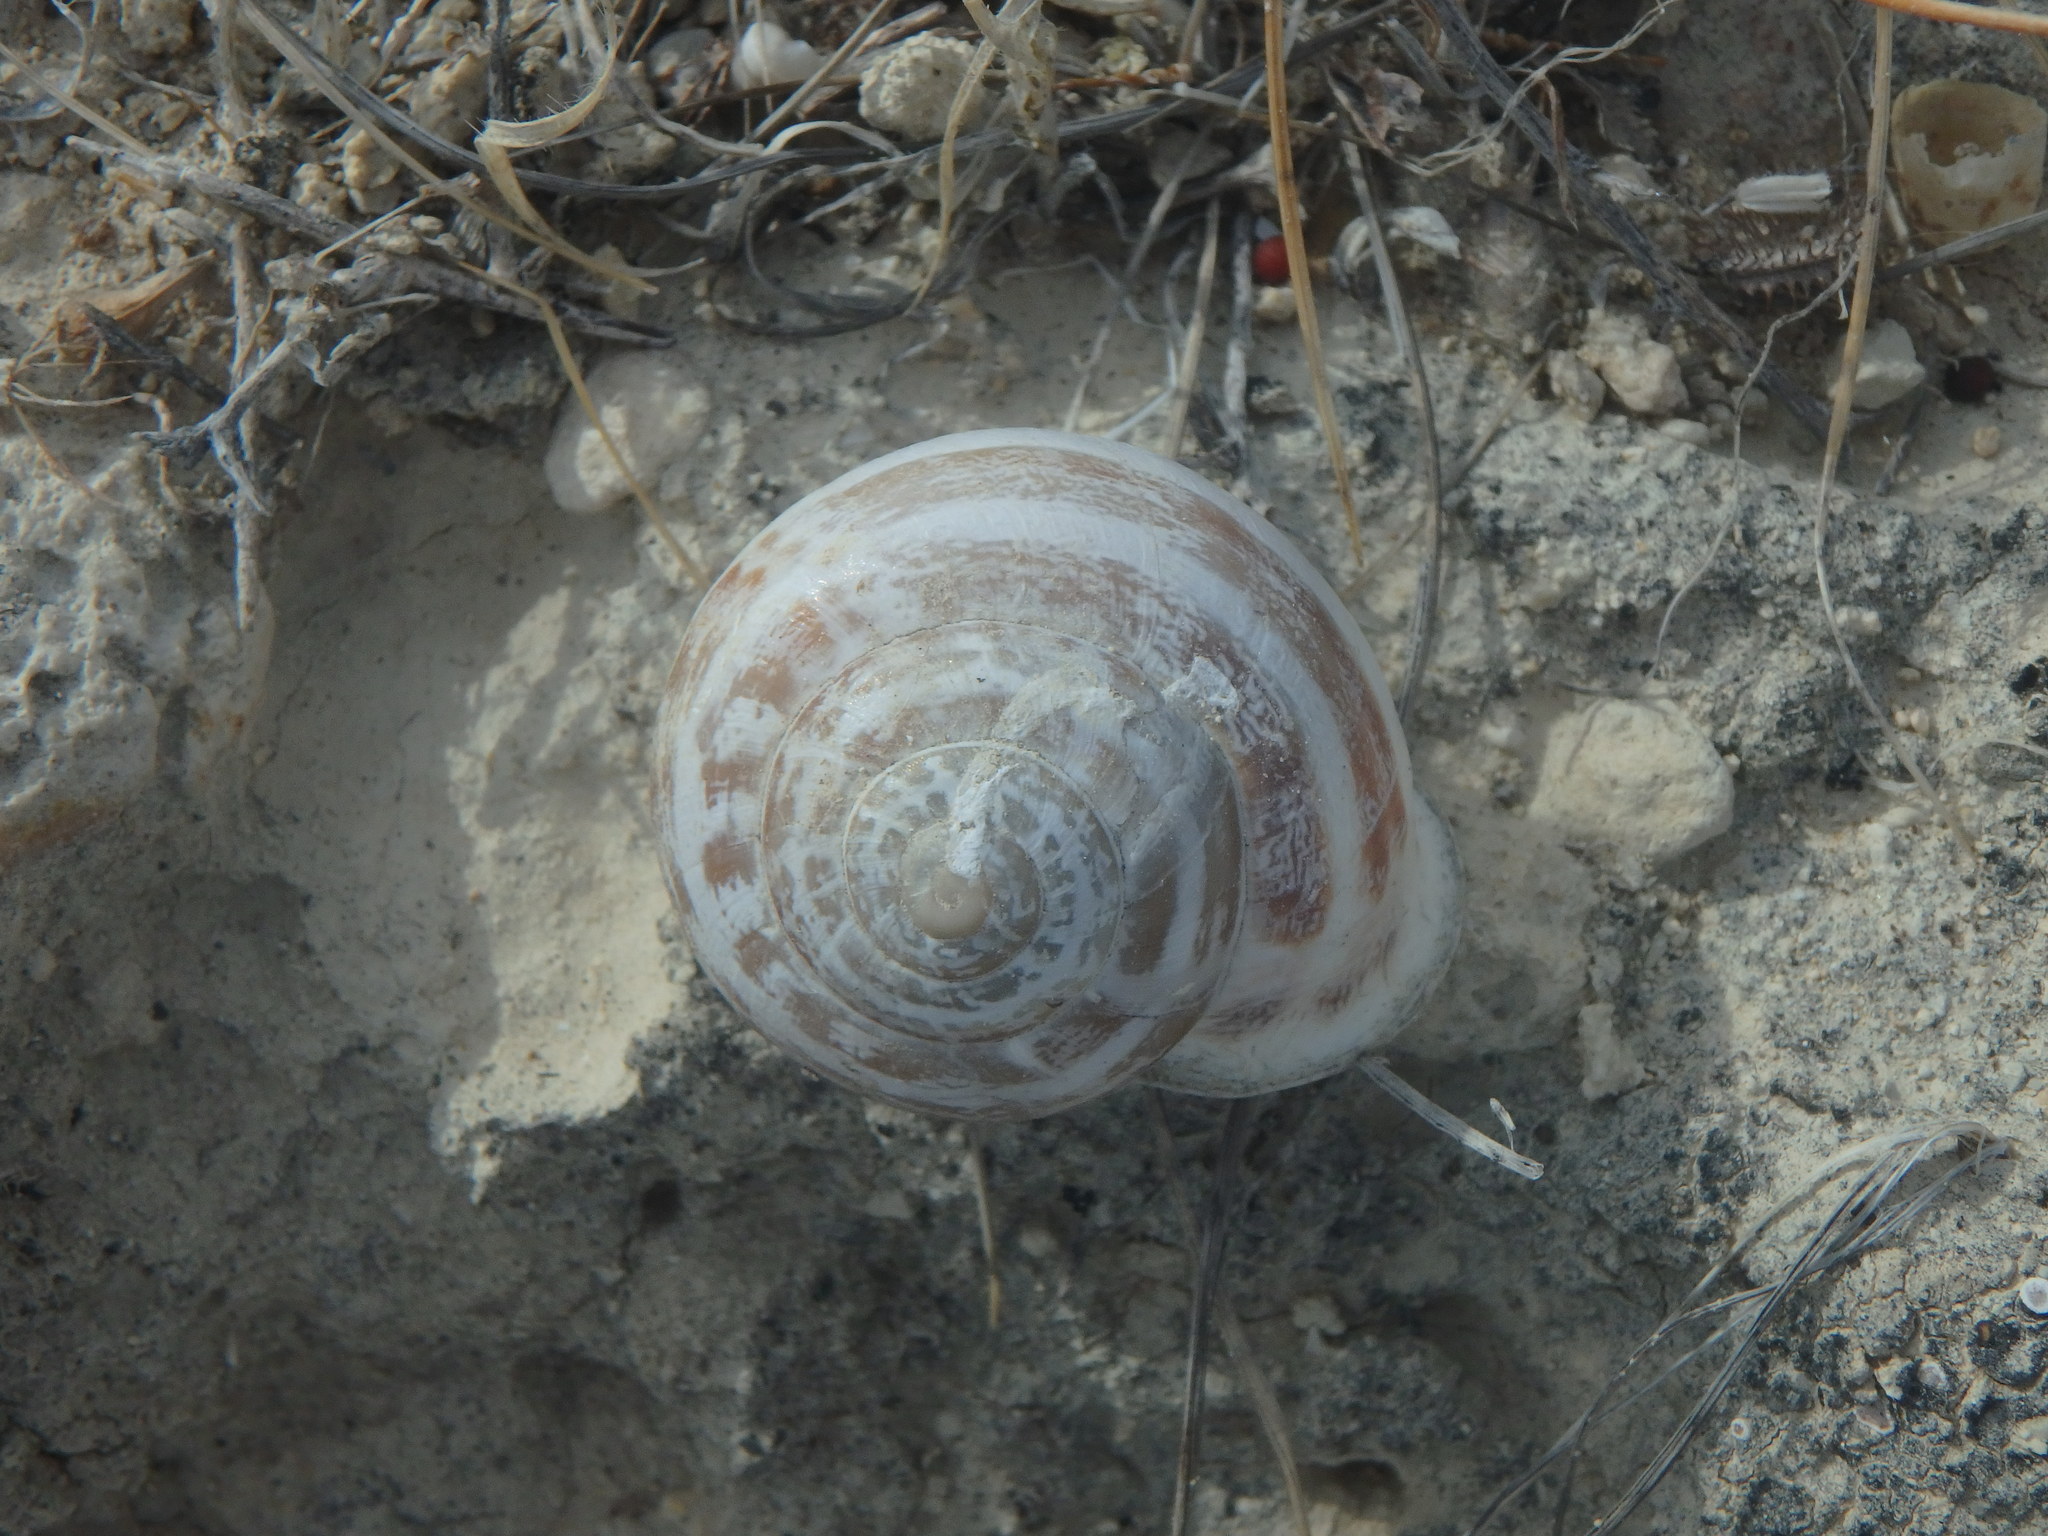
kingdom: Animalia
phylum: Mollusca
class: Gastropoda
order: Stylommatophora
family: Helicidae
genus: Eobania
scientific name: Eobania vermiculata
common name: Chocolateband snail
